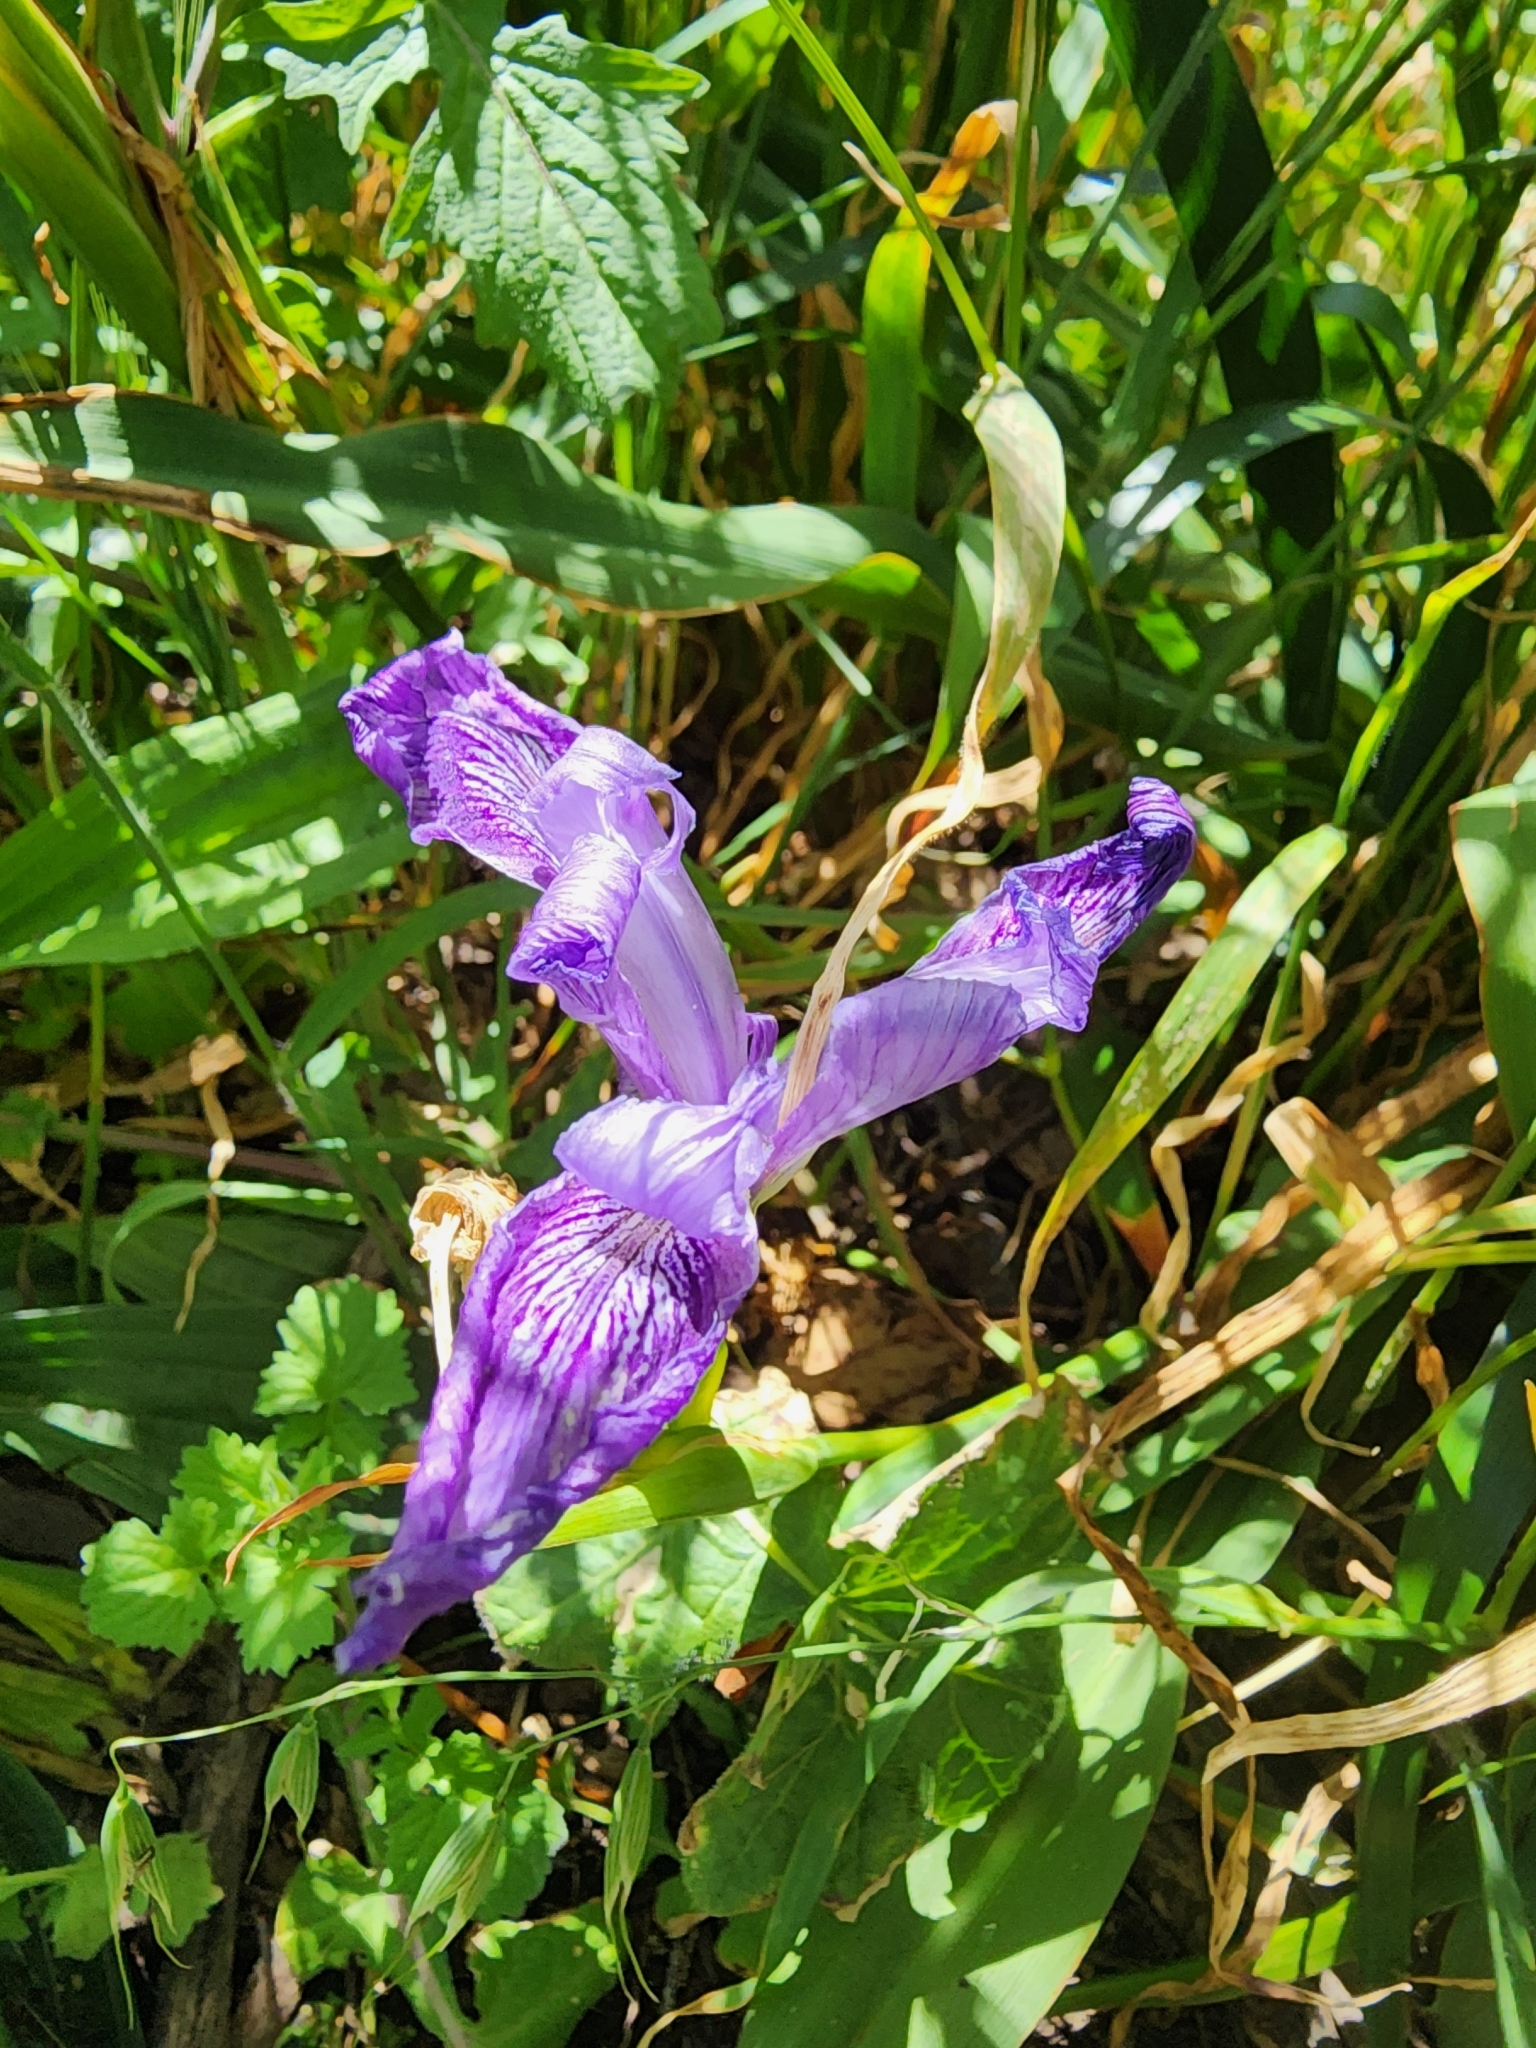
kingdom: Plantae
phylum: Tracheophyta
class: Liliopsida
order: Asparagales
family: Iridaceae
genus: Iris
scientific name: Iris douglasiana
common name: Marin iris
